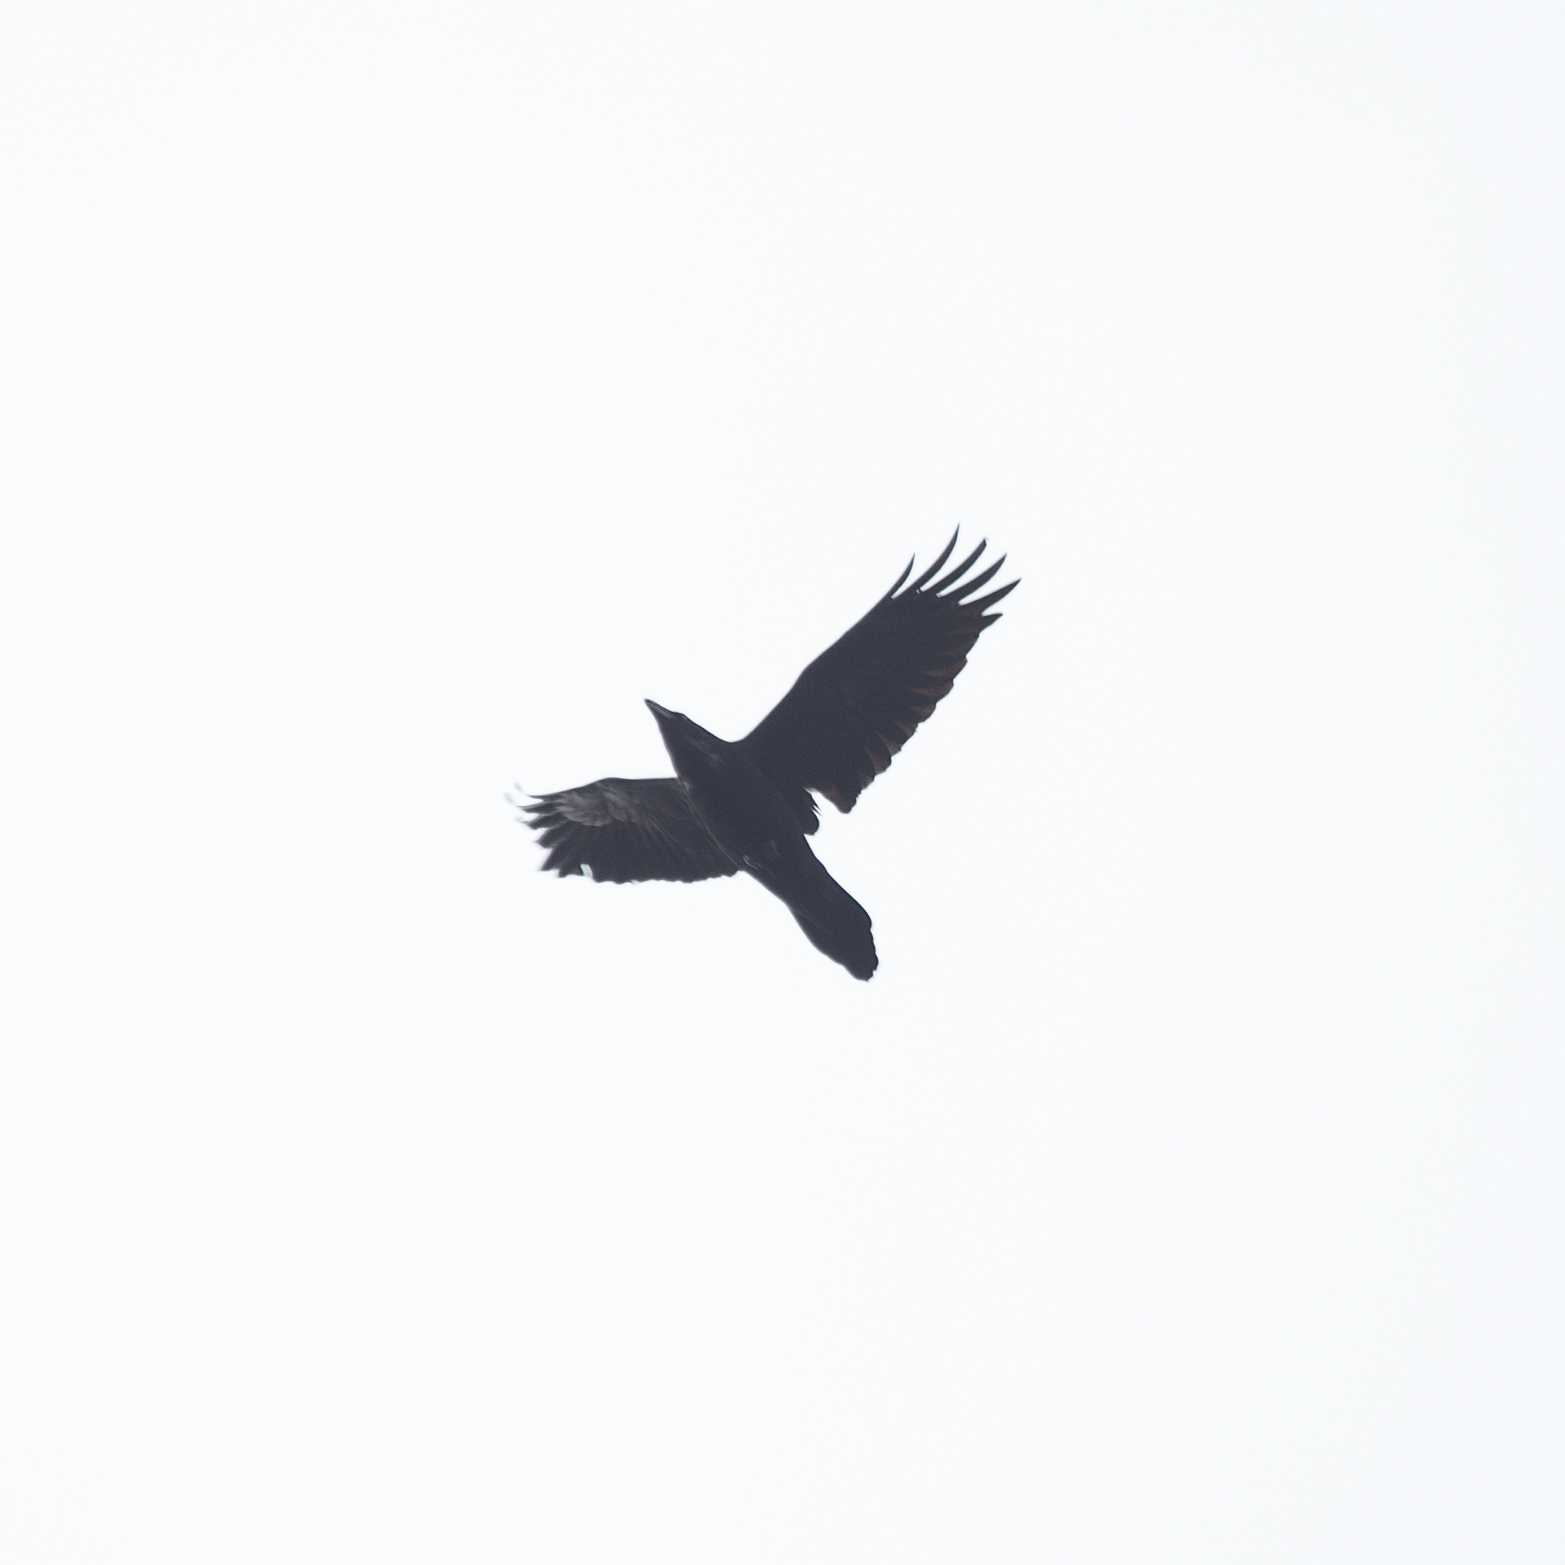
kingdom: Animalia
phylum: Chordata
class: Aves
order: Passeriformes
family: Corvidae
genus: Corvus
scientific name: Corvus corax
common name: Common raven
